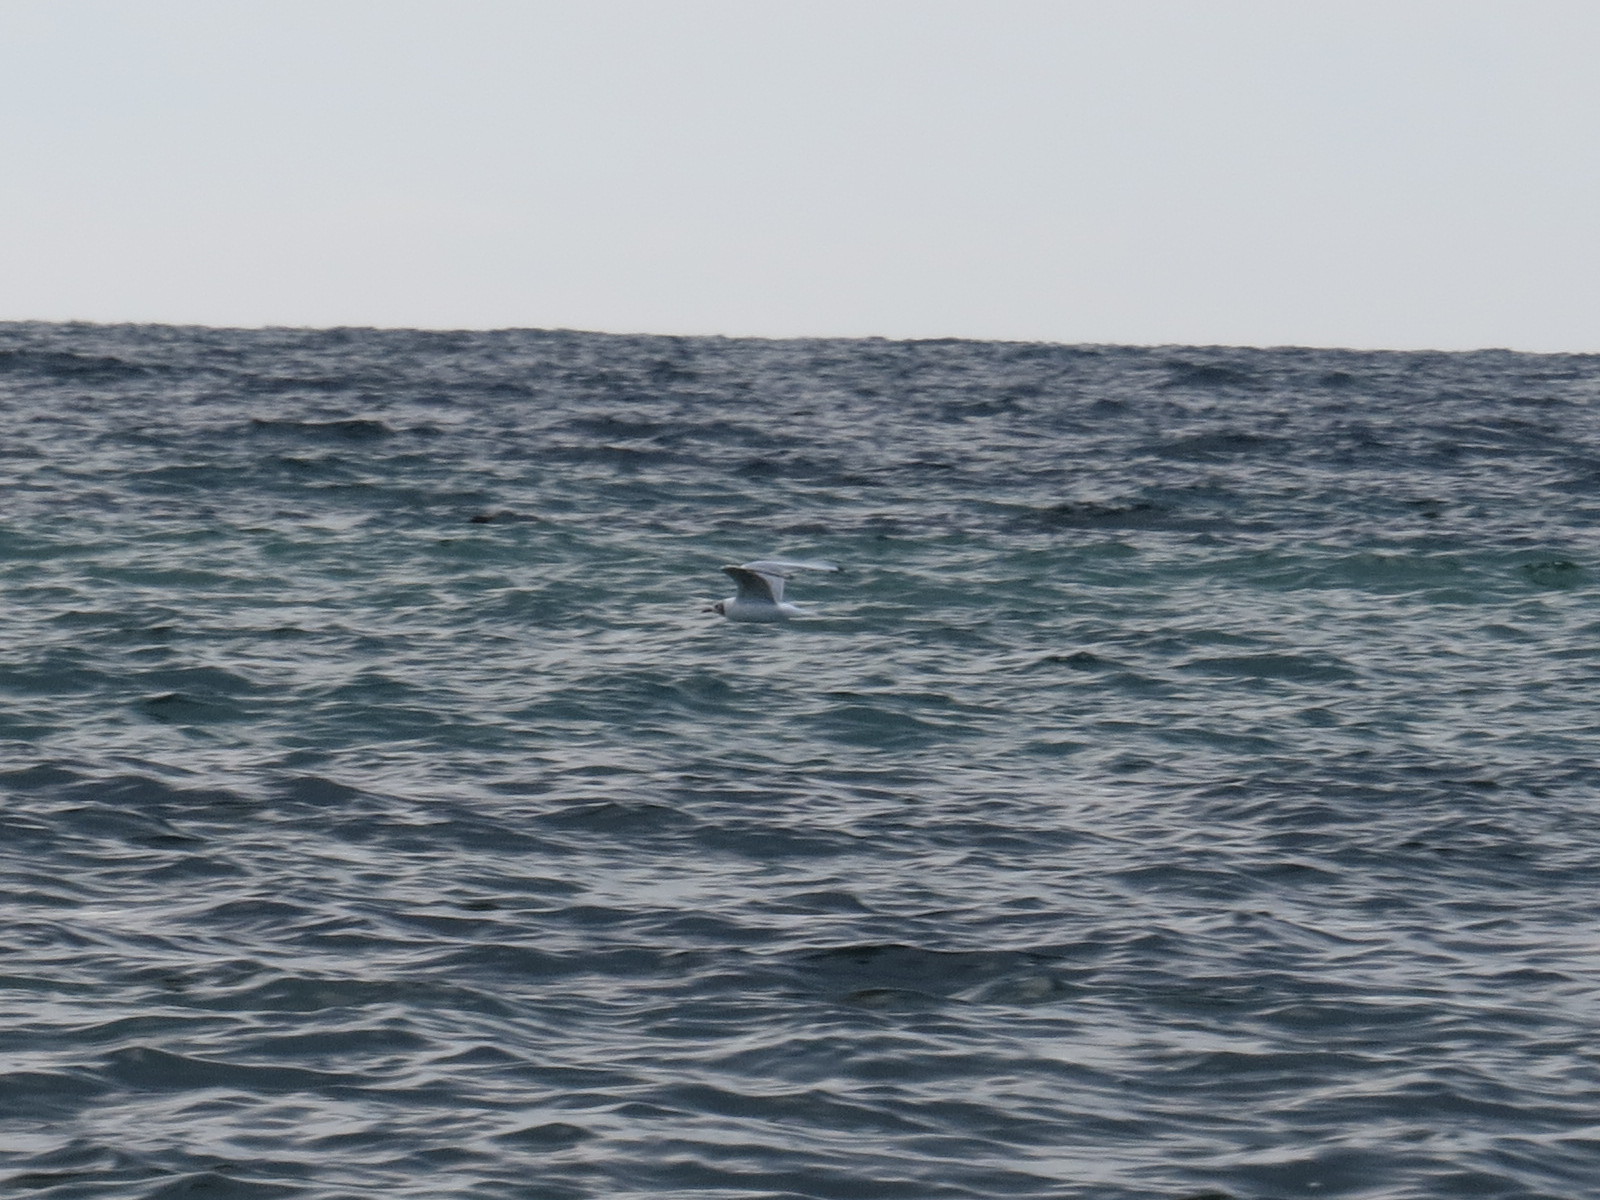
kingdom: Animalia
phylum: Chordata
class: Aves
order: Charadriiformes
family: Laridae
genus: Chroicocephalus
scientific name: Chroicocephalus ridibundus
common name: Black-headed gull
